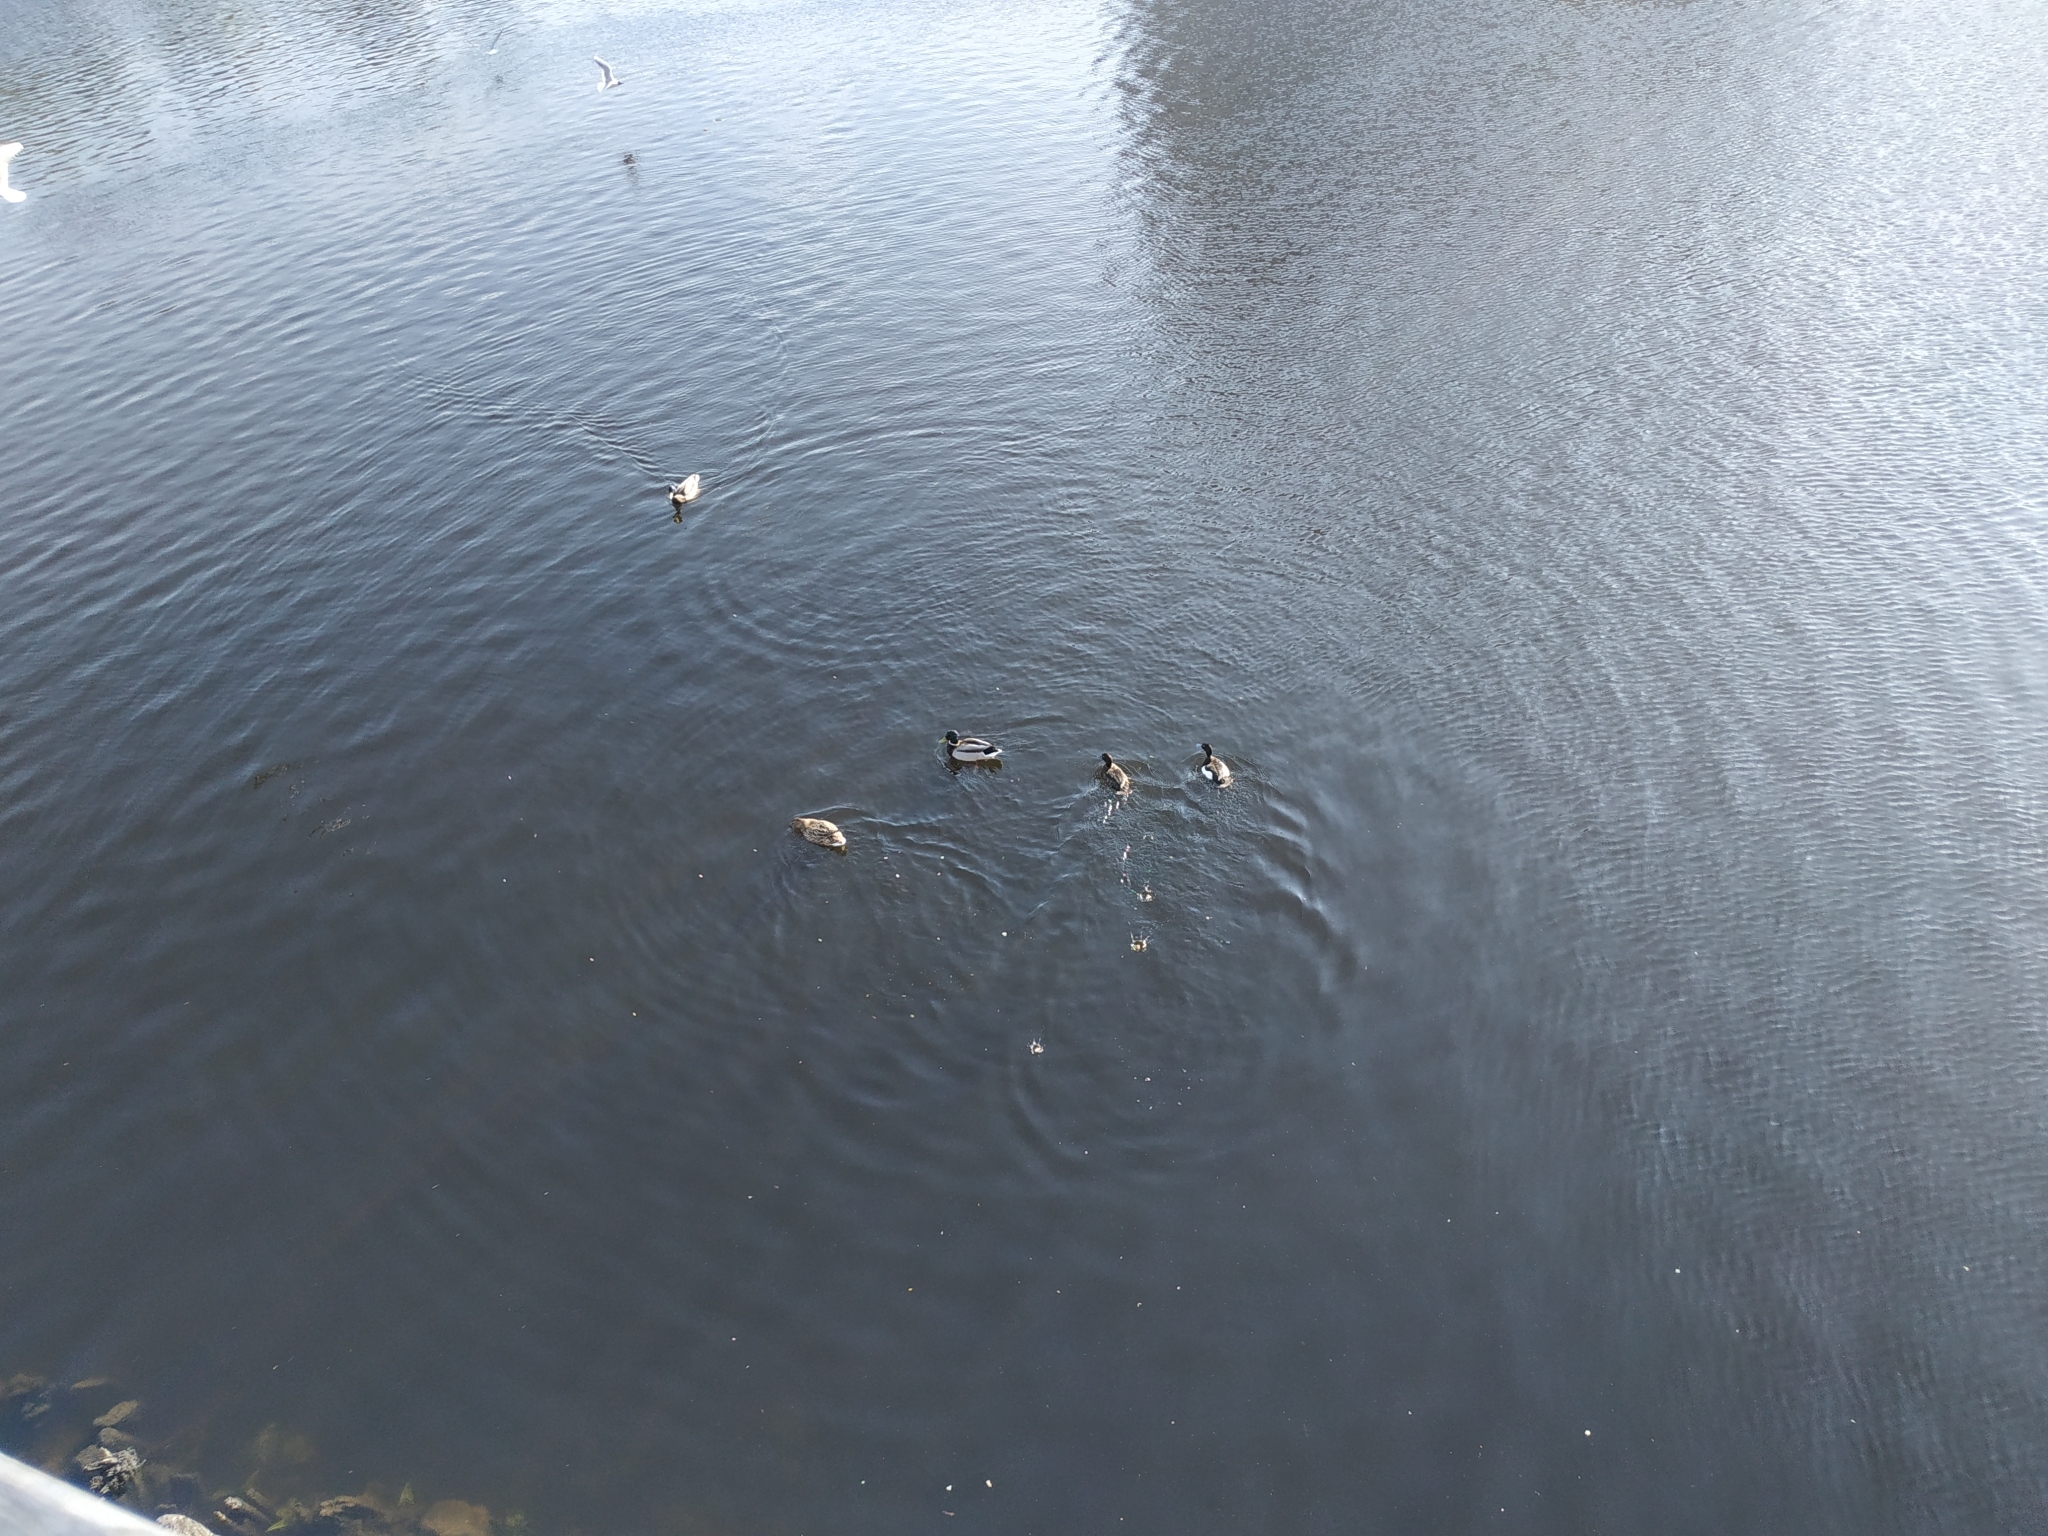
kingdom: Animalia
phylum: Chordata
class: Aves
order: Anseriformes
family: Anatidae
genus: Aythya
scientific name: Aythya fuligula
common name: Tufted duck
